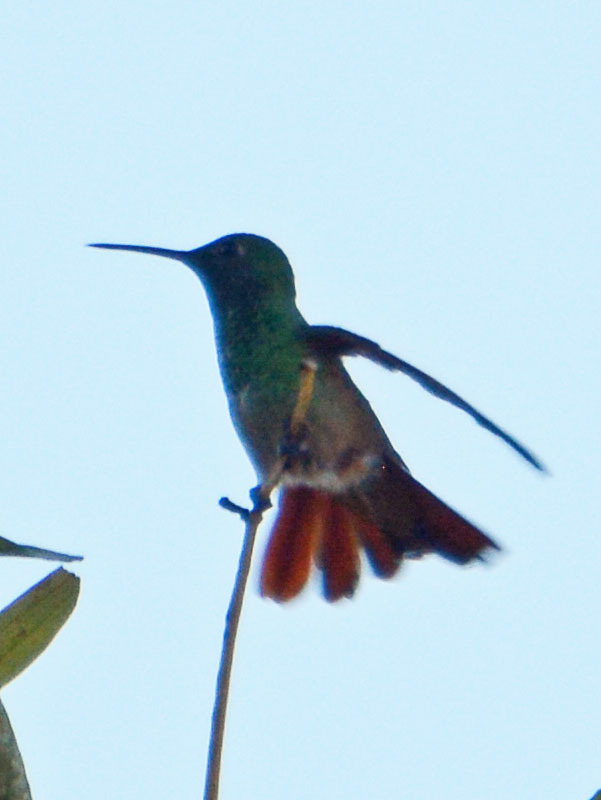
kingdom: Animalia
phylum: Chordata
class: Aves
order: Apodiformes
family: Trochilidae
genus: Saucerottia
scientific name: Saucerottia beryllina
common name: Berylline hummingbird
